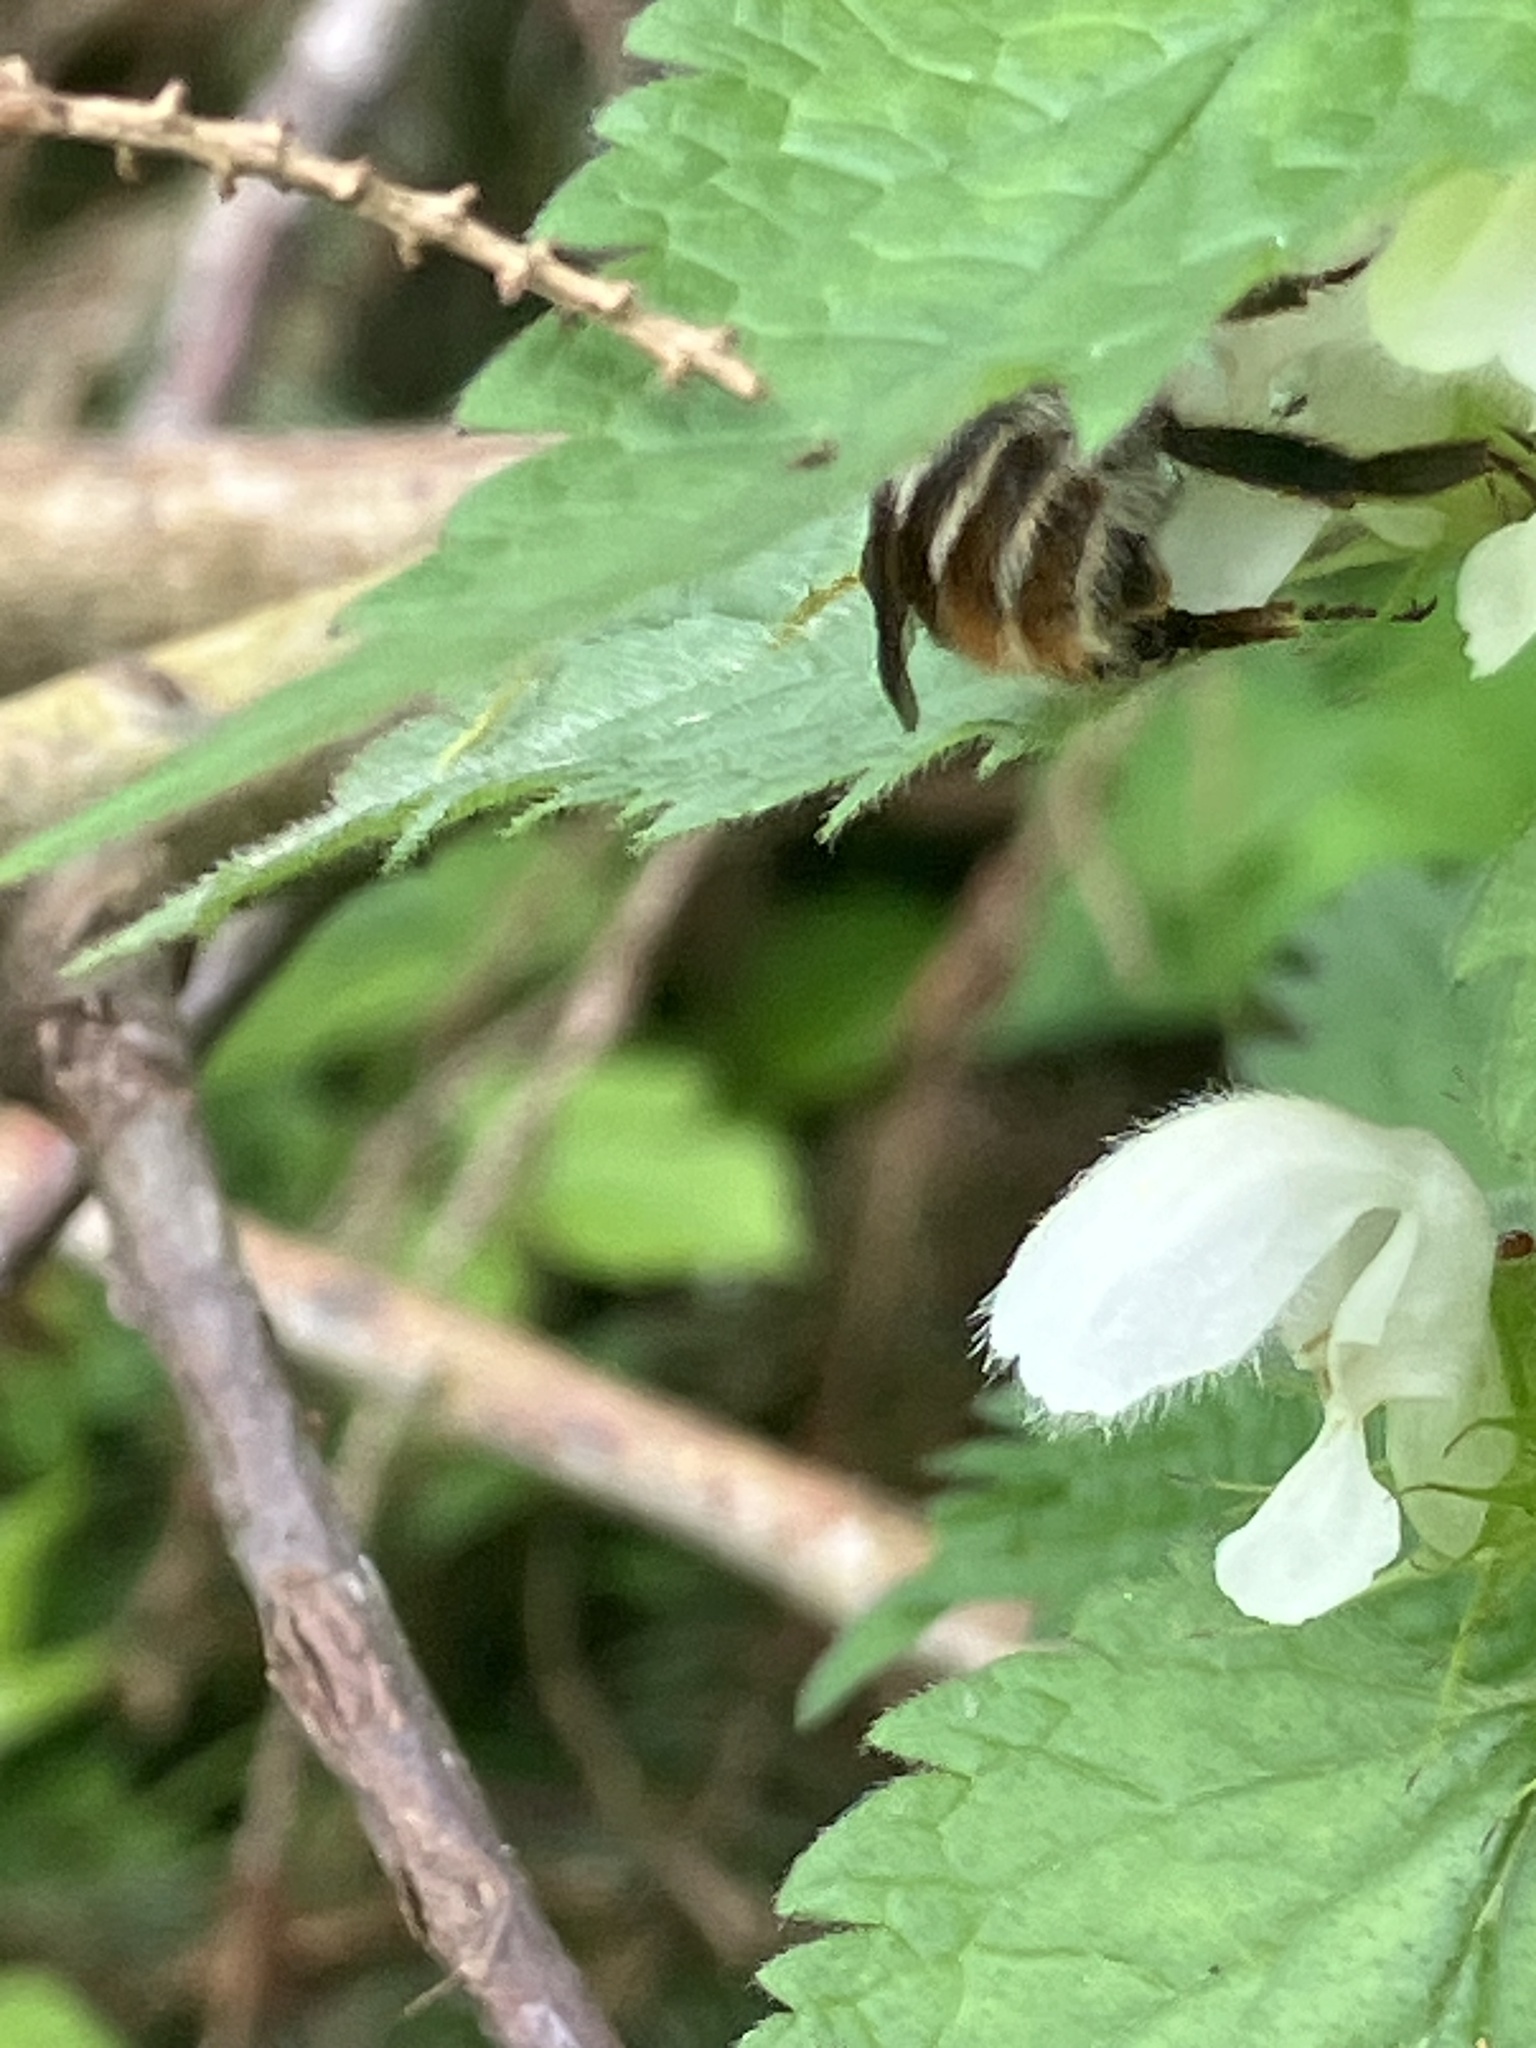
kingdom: Animalia
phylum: Arthropoda
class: Insecta
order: Hymenoptera
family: Apidae
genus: Bombus
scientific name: Bombus sylvarum
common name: Shrill carder bee
